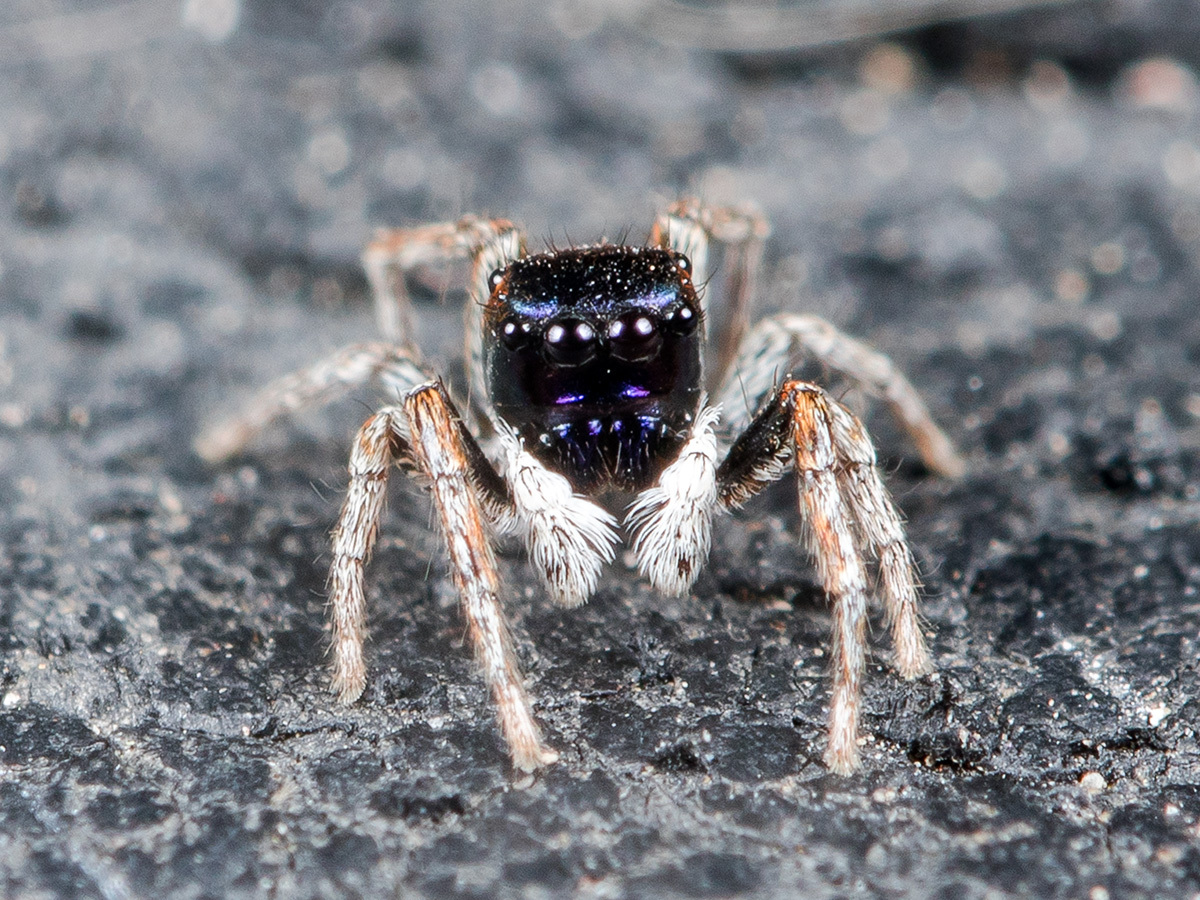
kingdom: Animalia
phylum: Arthropoda
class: Arachnida
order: Araneae
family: Salticidae
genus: Attulus
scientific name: Attulus mirandus
